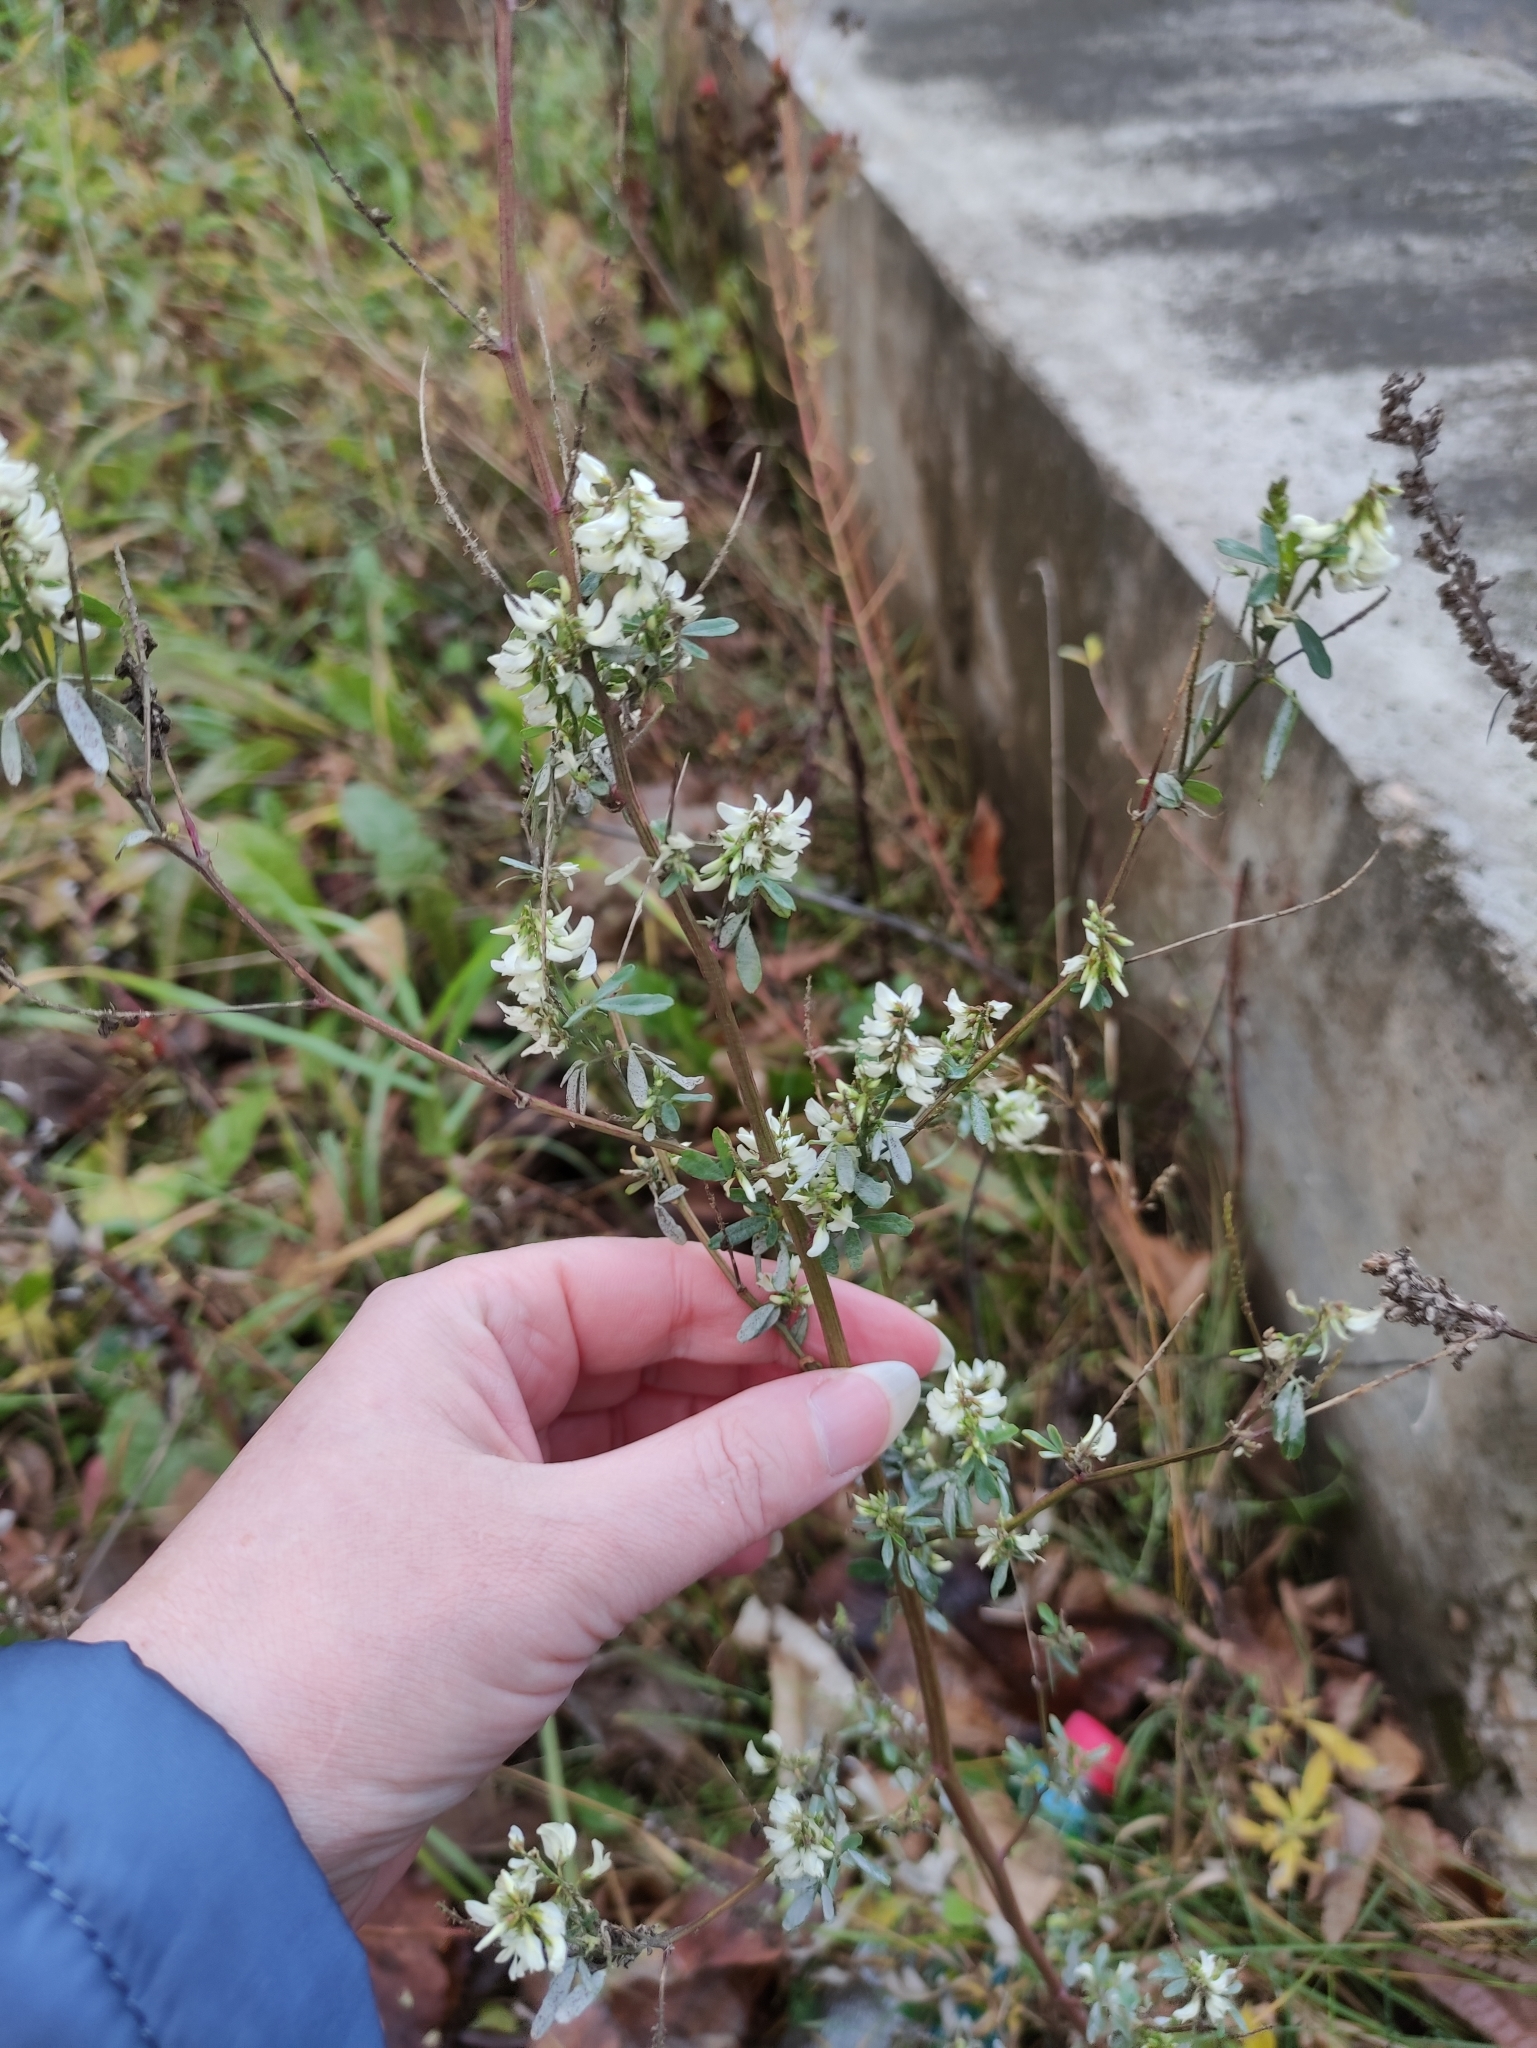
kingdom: Plantae
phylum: Tracheophyta
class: Magnoliopsida
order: Fabales
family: Fabaceae
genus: Melilotus
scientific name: Melilotus albus
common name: White melilot
